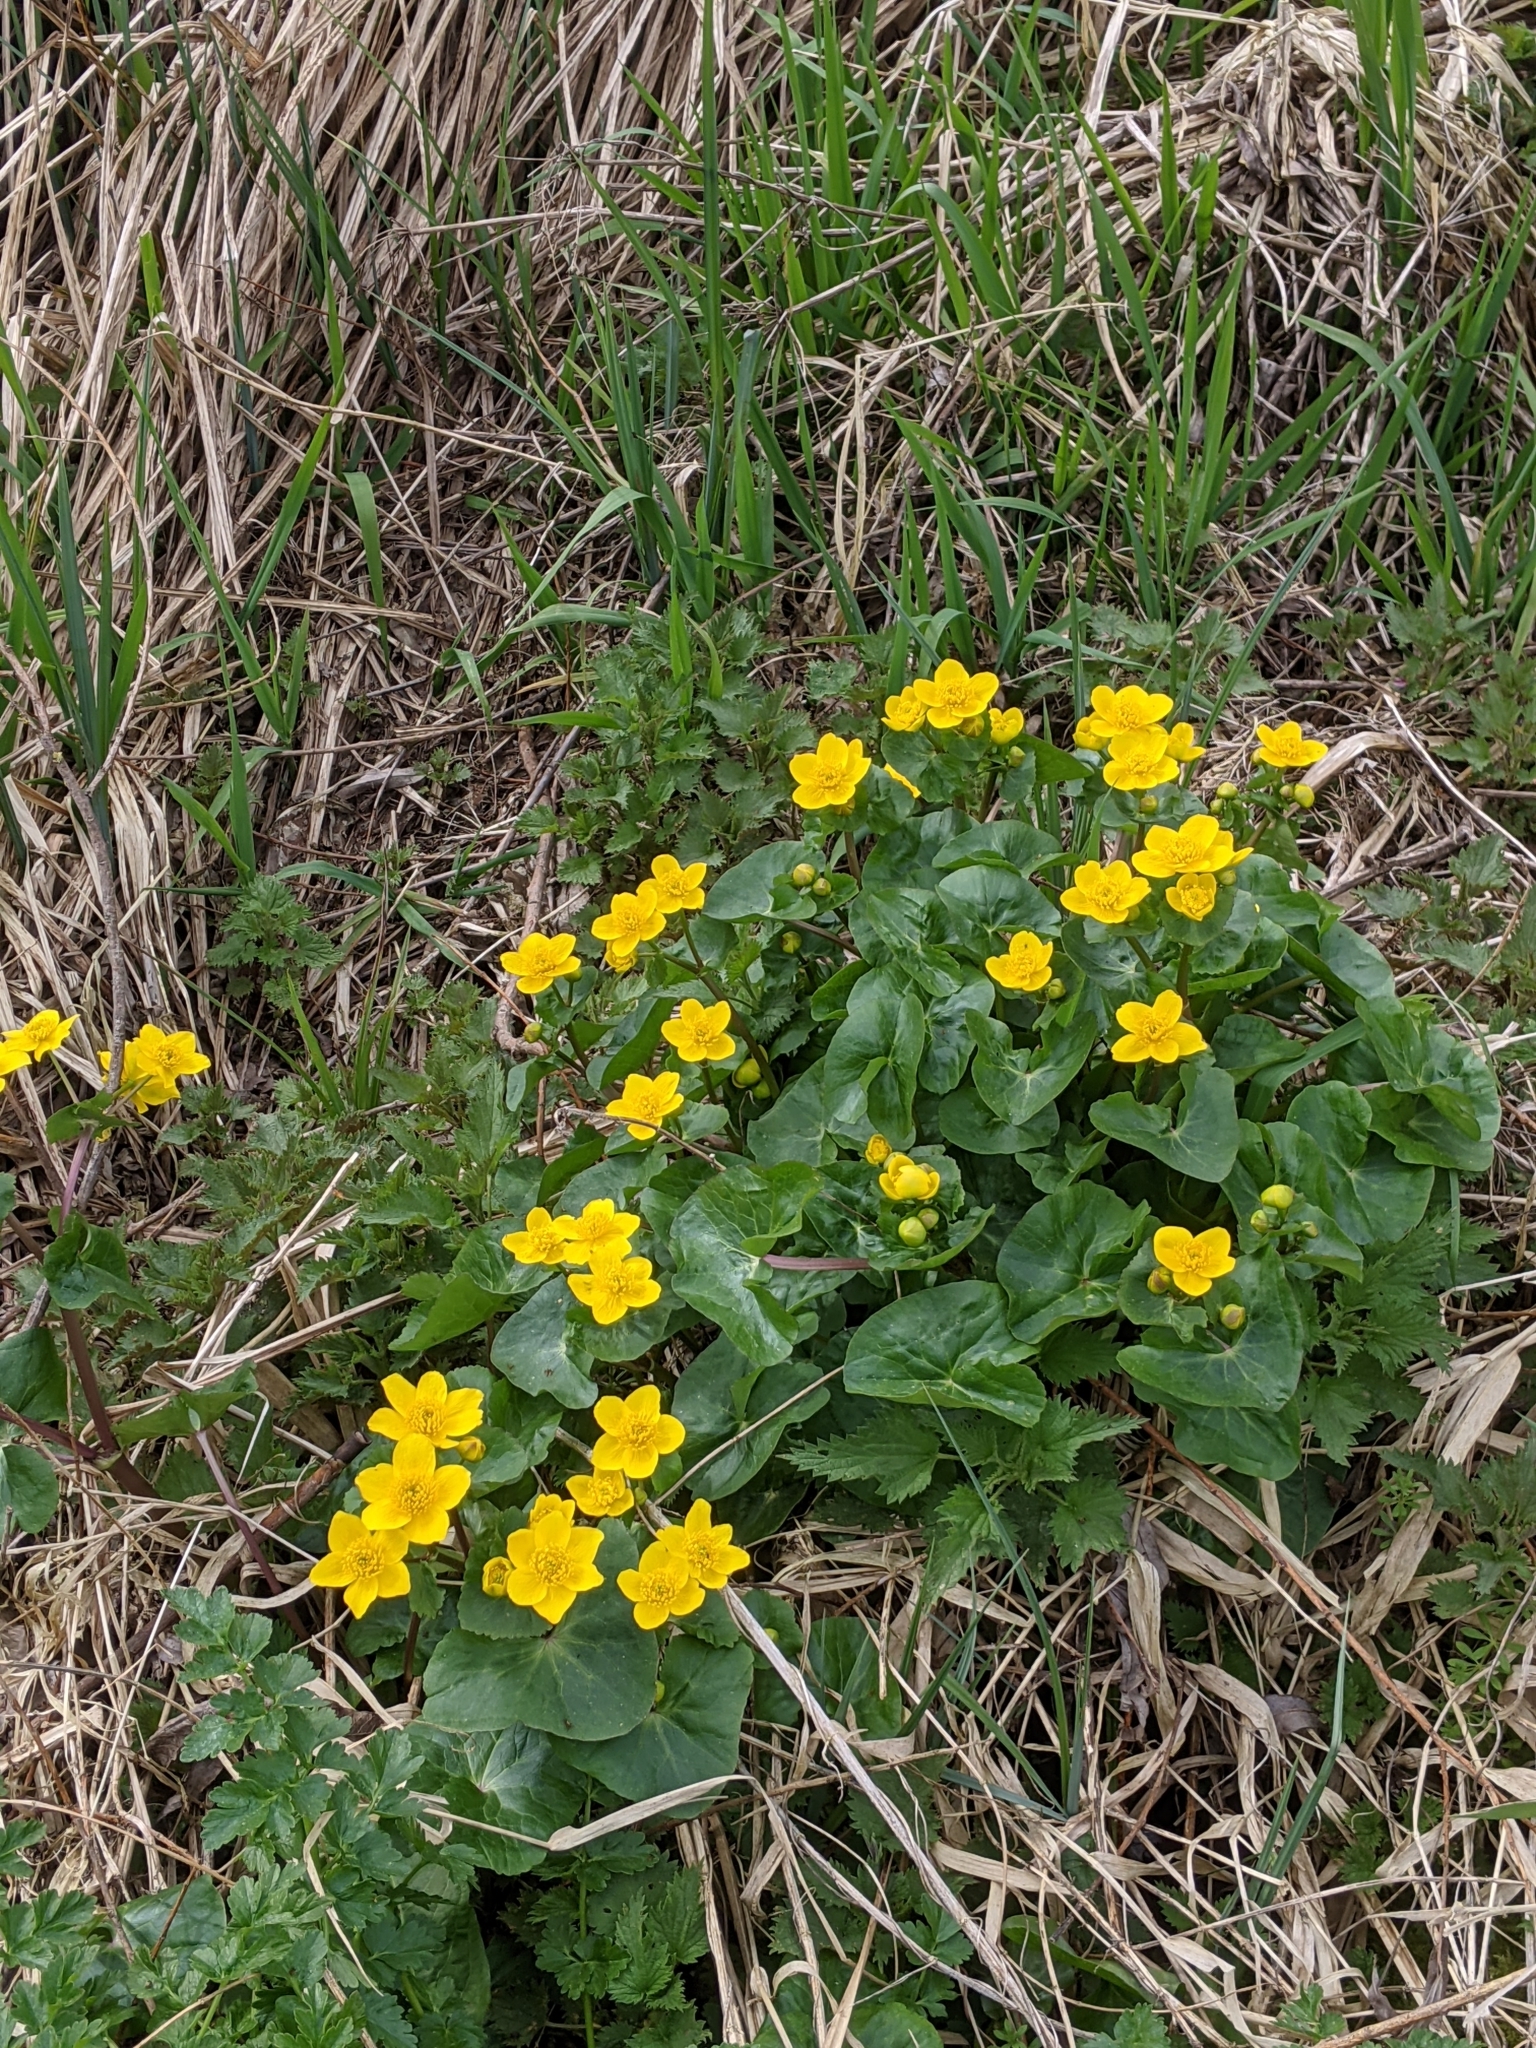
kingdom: Plantae
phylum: Tracheophyta
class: Magnoliopsida
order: Ranunculales
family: Ranunculaceae
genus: Caltha
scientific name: Caltha palustris
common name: Marsh marigold
